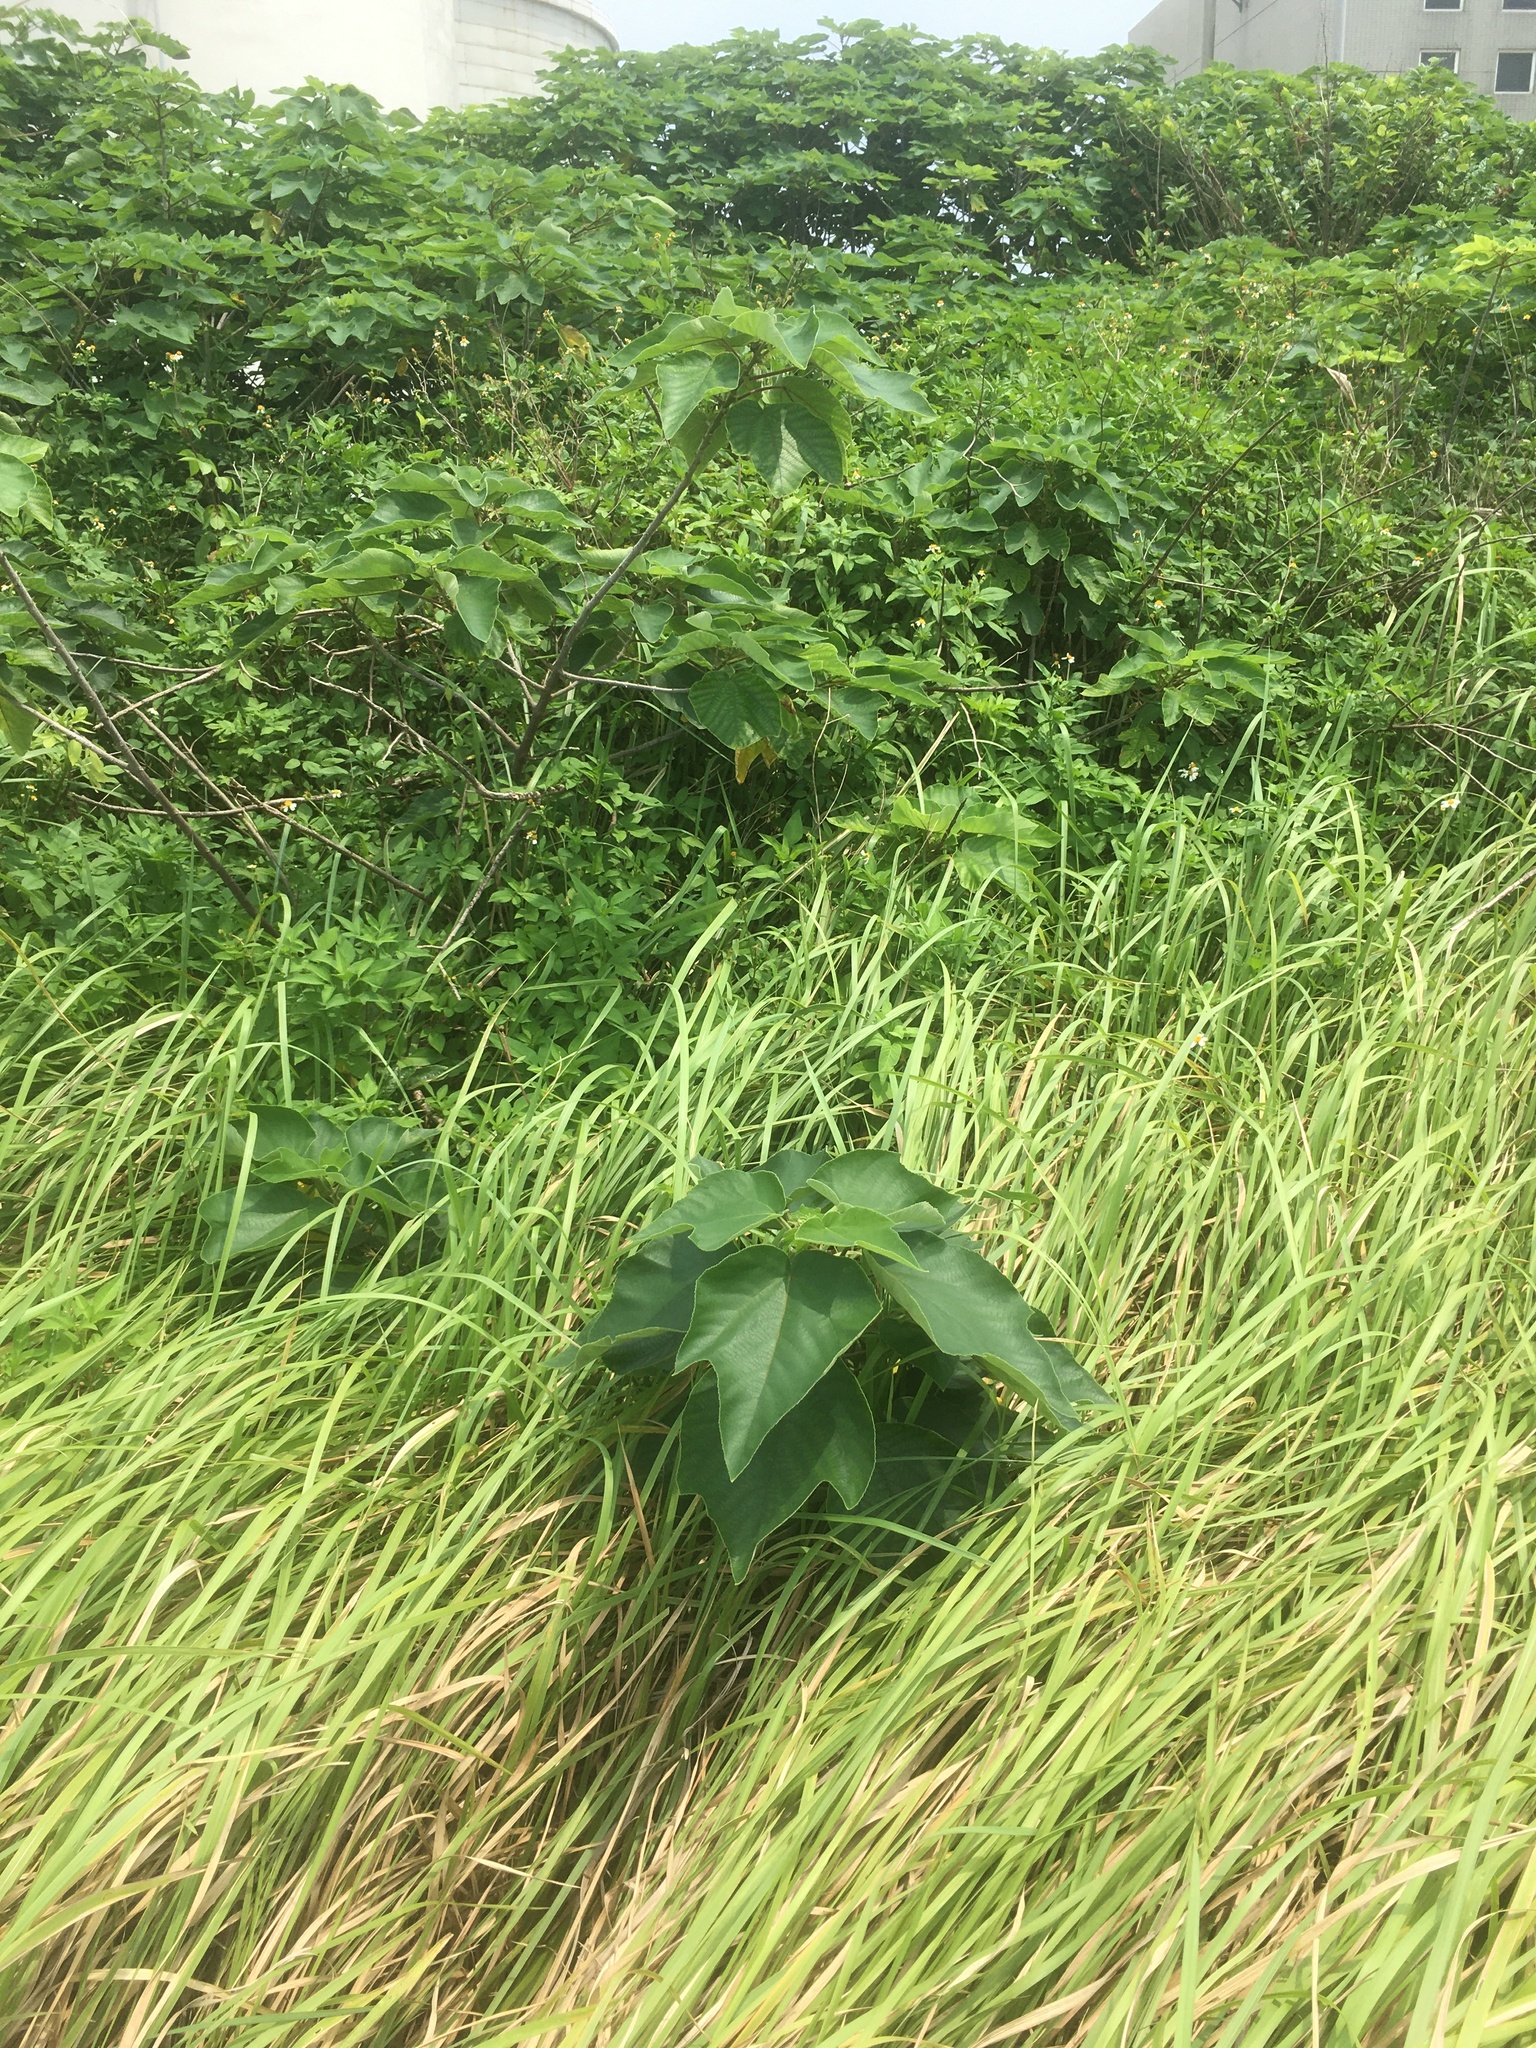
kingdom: Plantae
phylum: Tracheophyta
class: Magnoliopsida
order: Rosales
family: Moraceae
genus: Broussonetia
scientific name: Broussonetia papyrifera
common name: Paper mulberry
